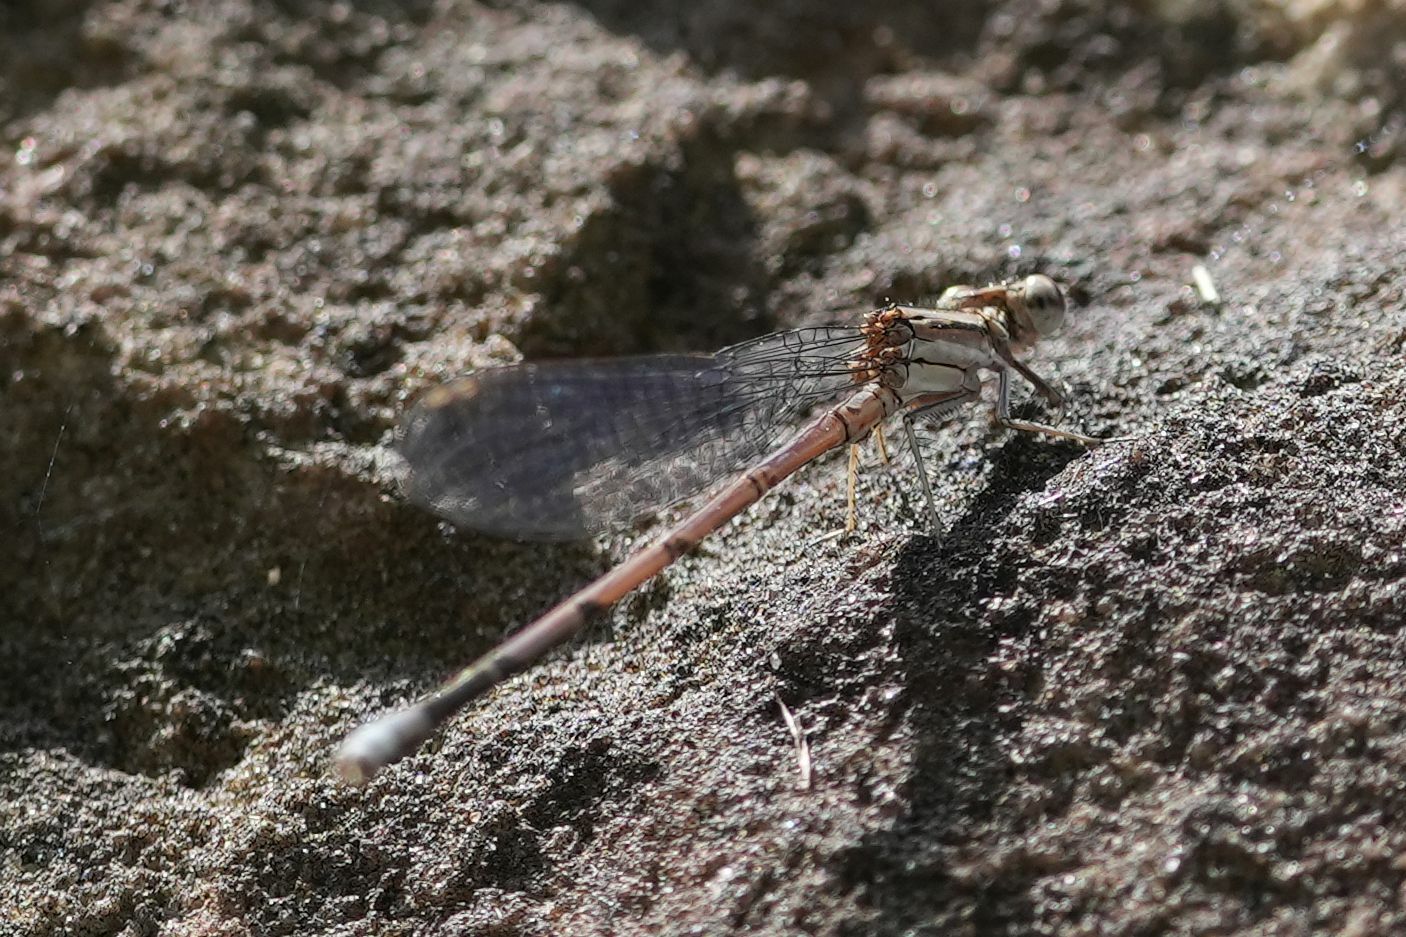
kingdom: Animalia
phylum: Arthropoda
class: Insecta
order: Odonata
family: Coenagrionidae
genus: Argia
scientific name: Argia fumipennis
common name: Variable dancer
